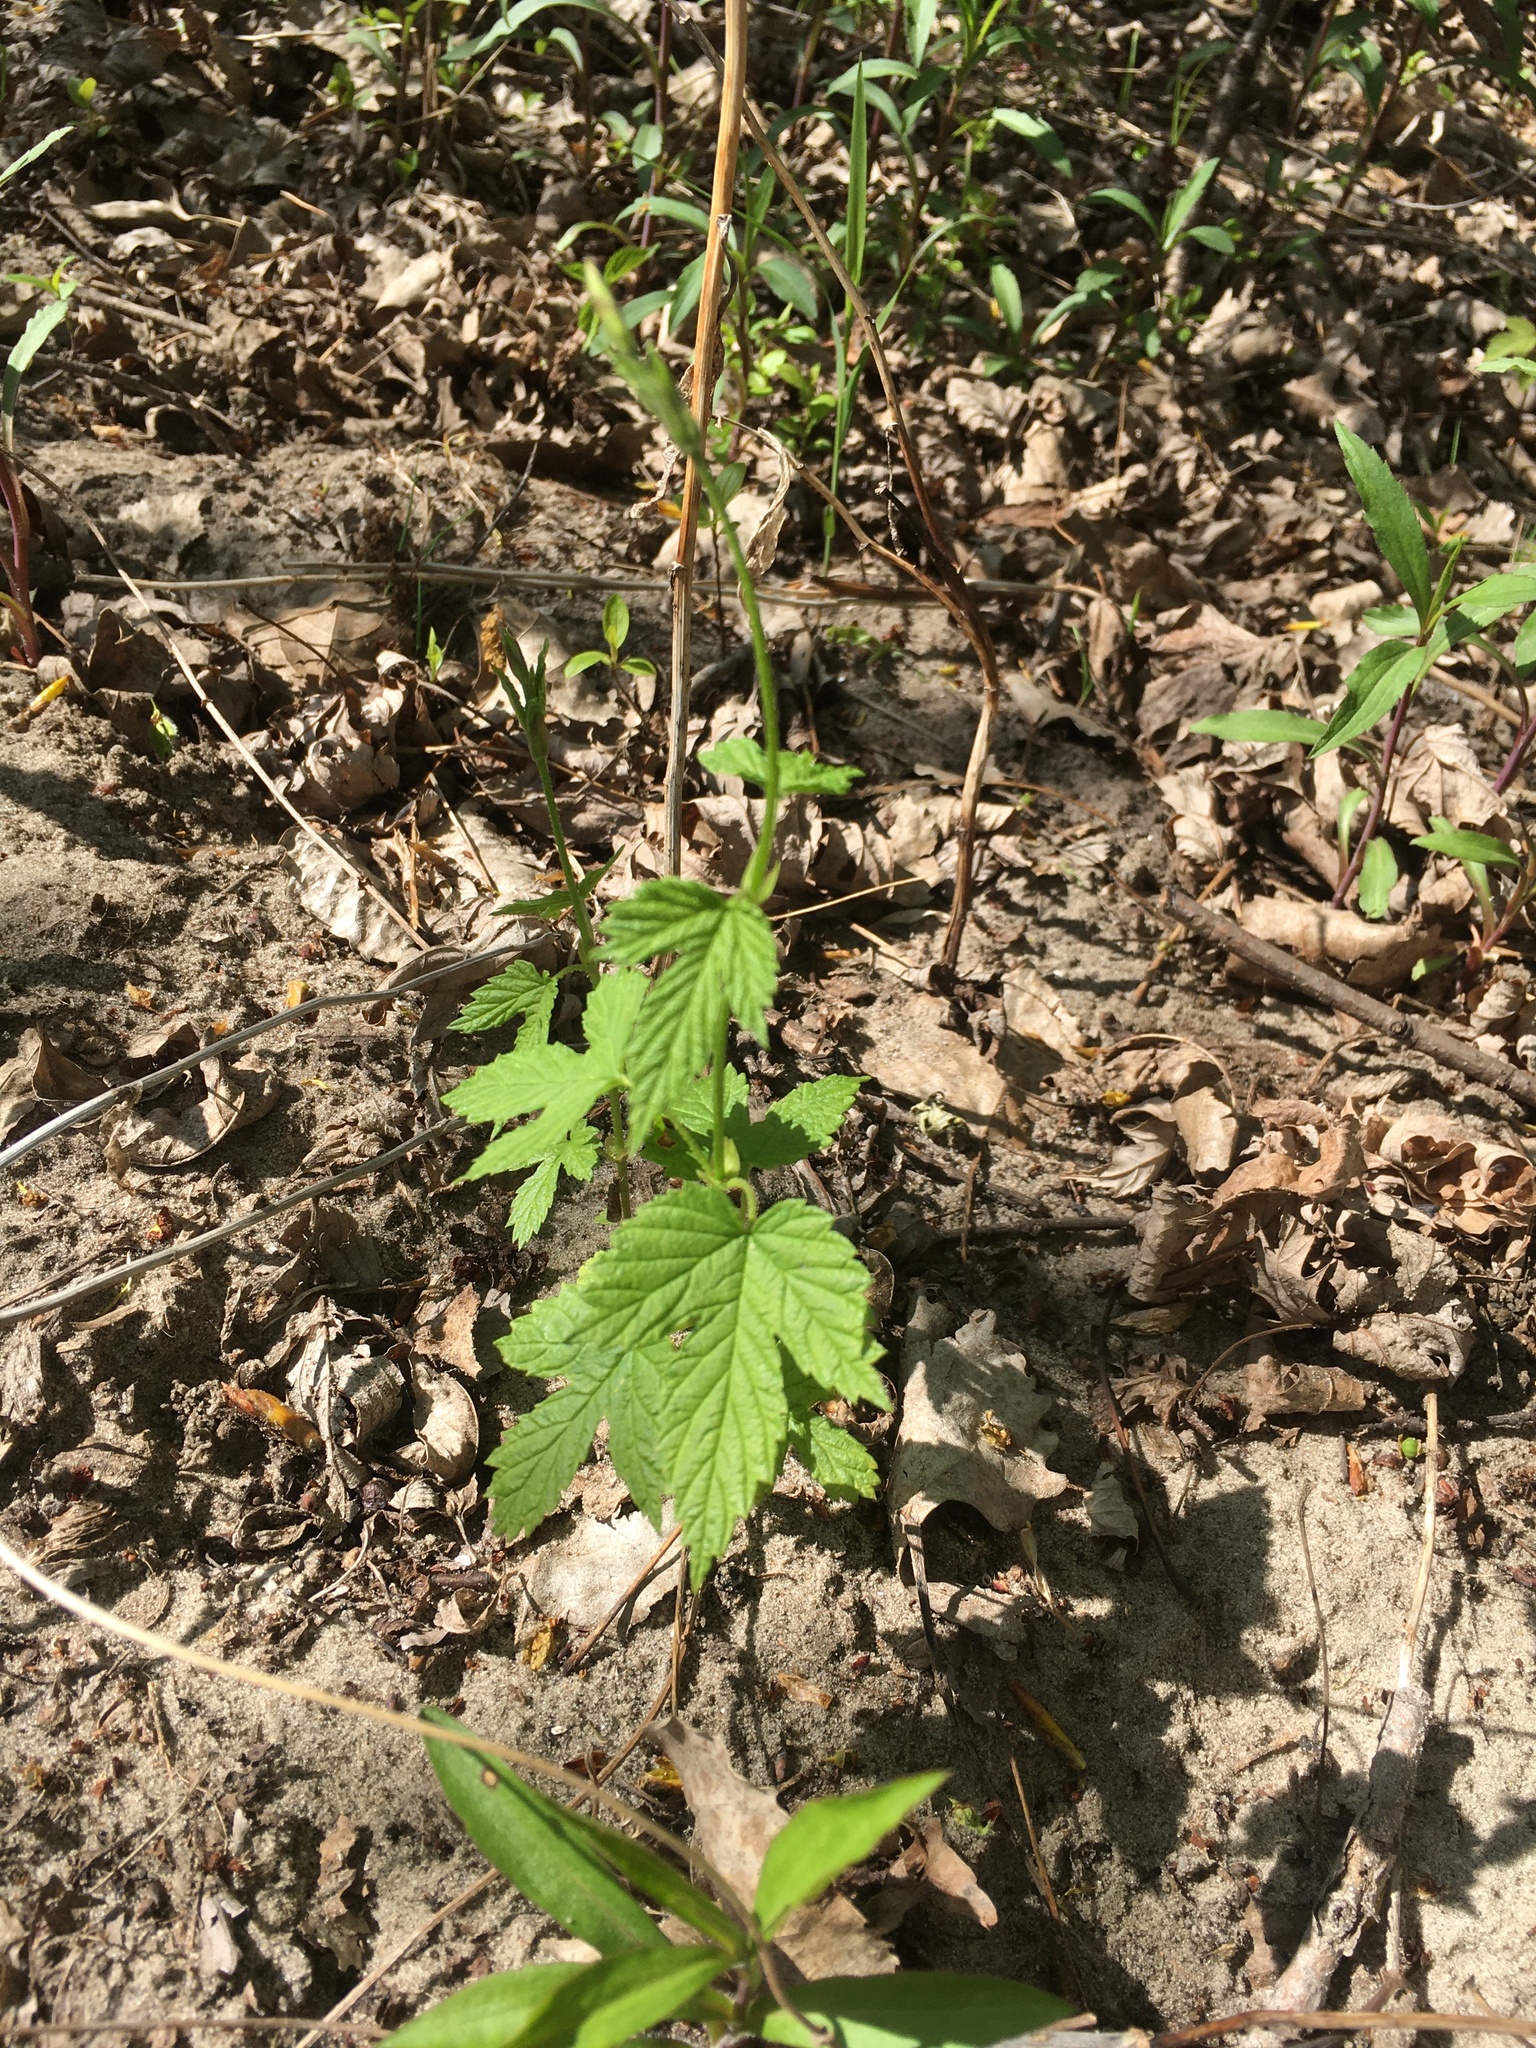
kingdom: Plantae
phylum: Tracheophyta
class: Magnoliopsida
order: Rosales
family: Cannabaceae
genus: Humulus
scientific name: Humulus lupulus
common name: Hop
